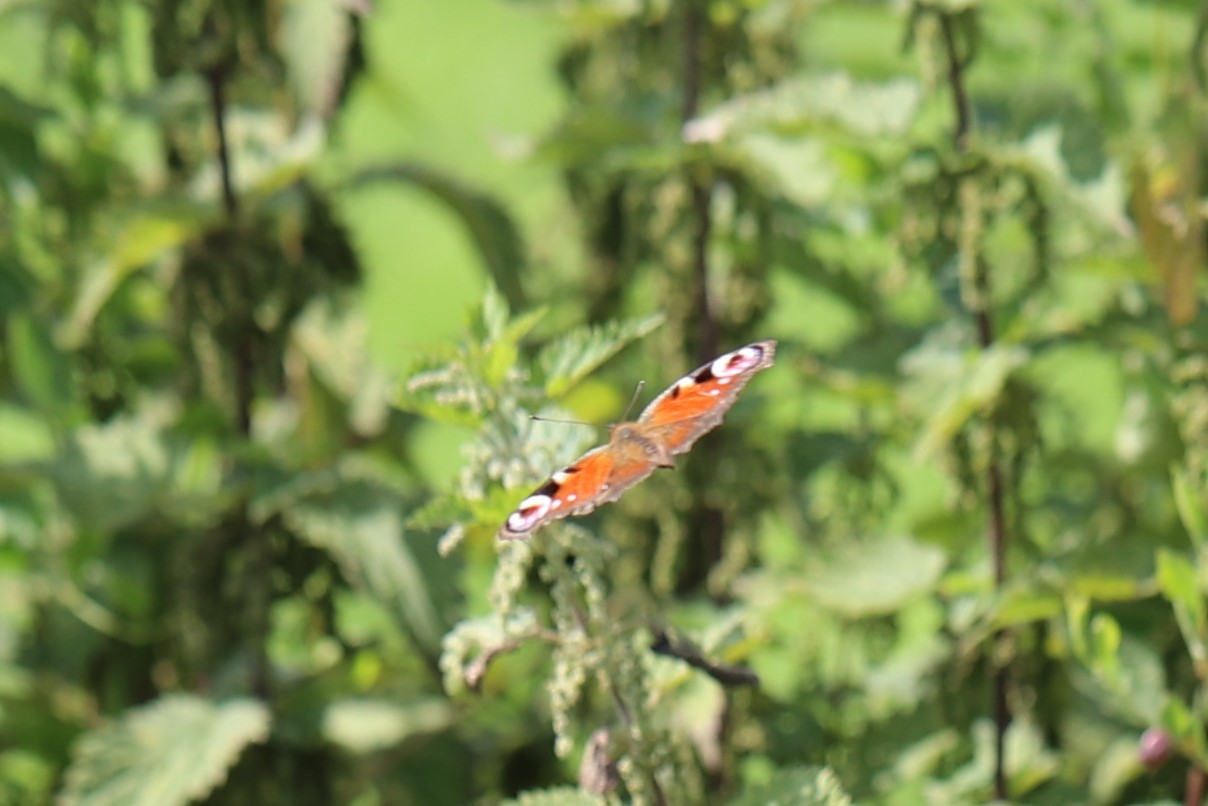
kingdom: Animalia
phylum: Arthropoda
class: Insecta
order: Lepidoptera
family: Nymphalidae
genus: Aglais
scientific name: Aglais io
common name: Peacock
